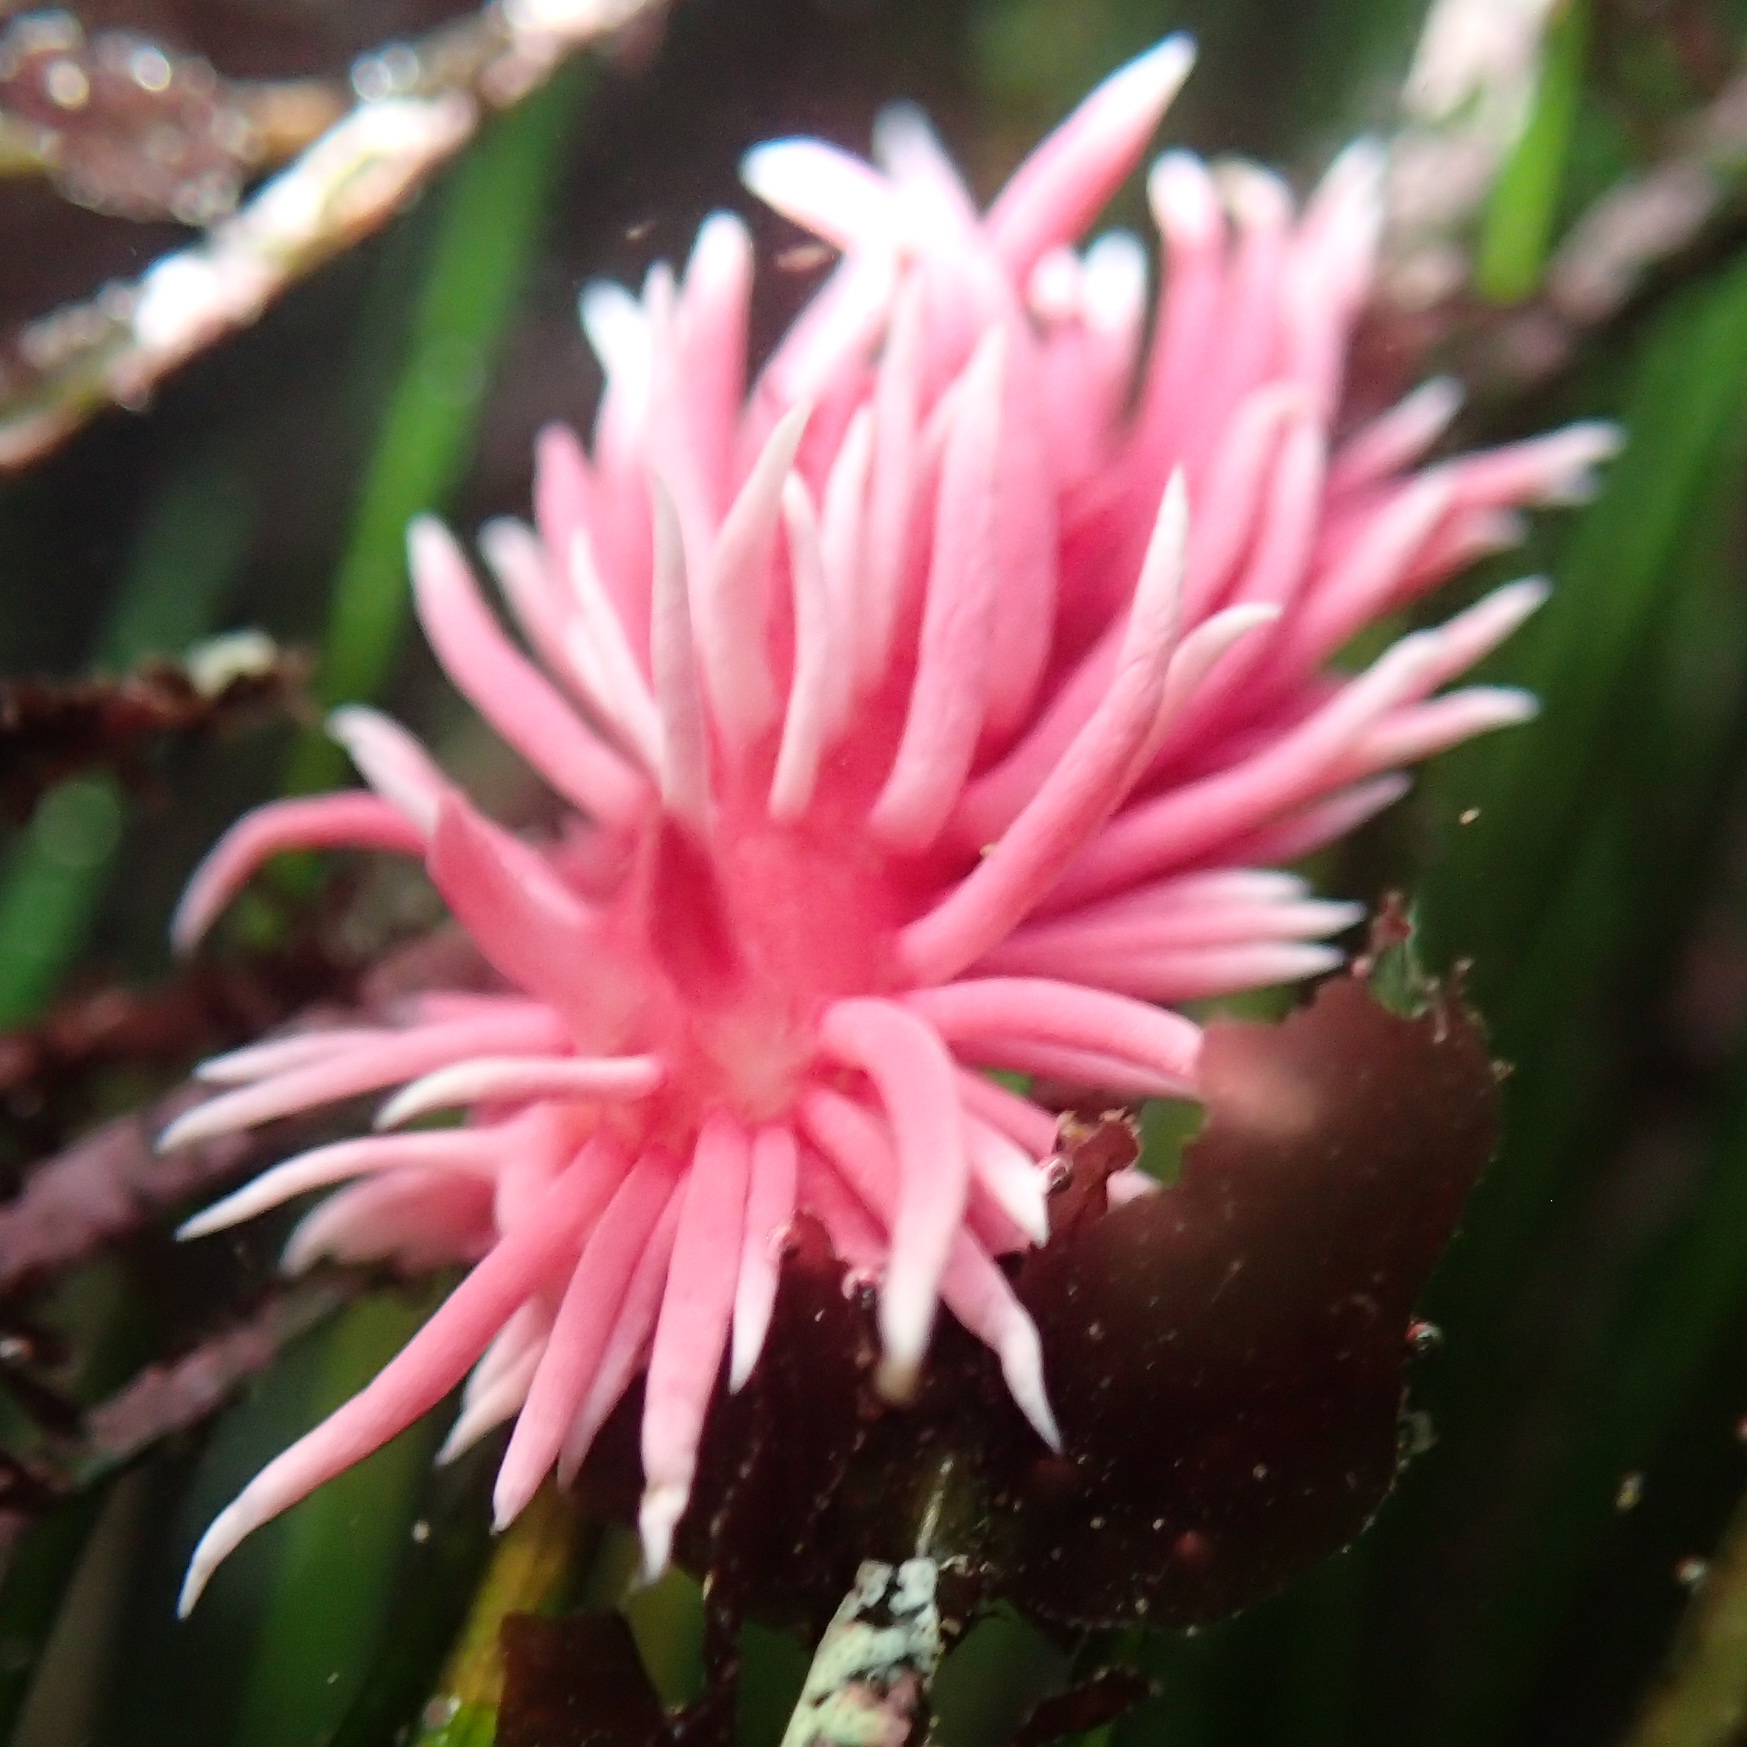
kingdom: Animalia
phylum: Mollusca
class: Gastropoda
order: Nudibranchia
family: Goniodorididae
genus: Okenia
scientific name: Okenia
